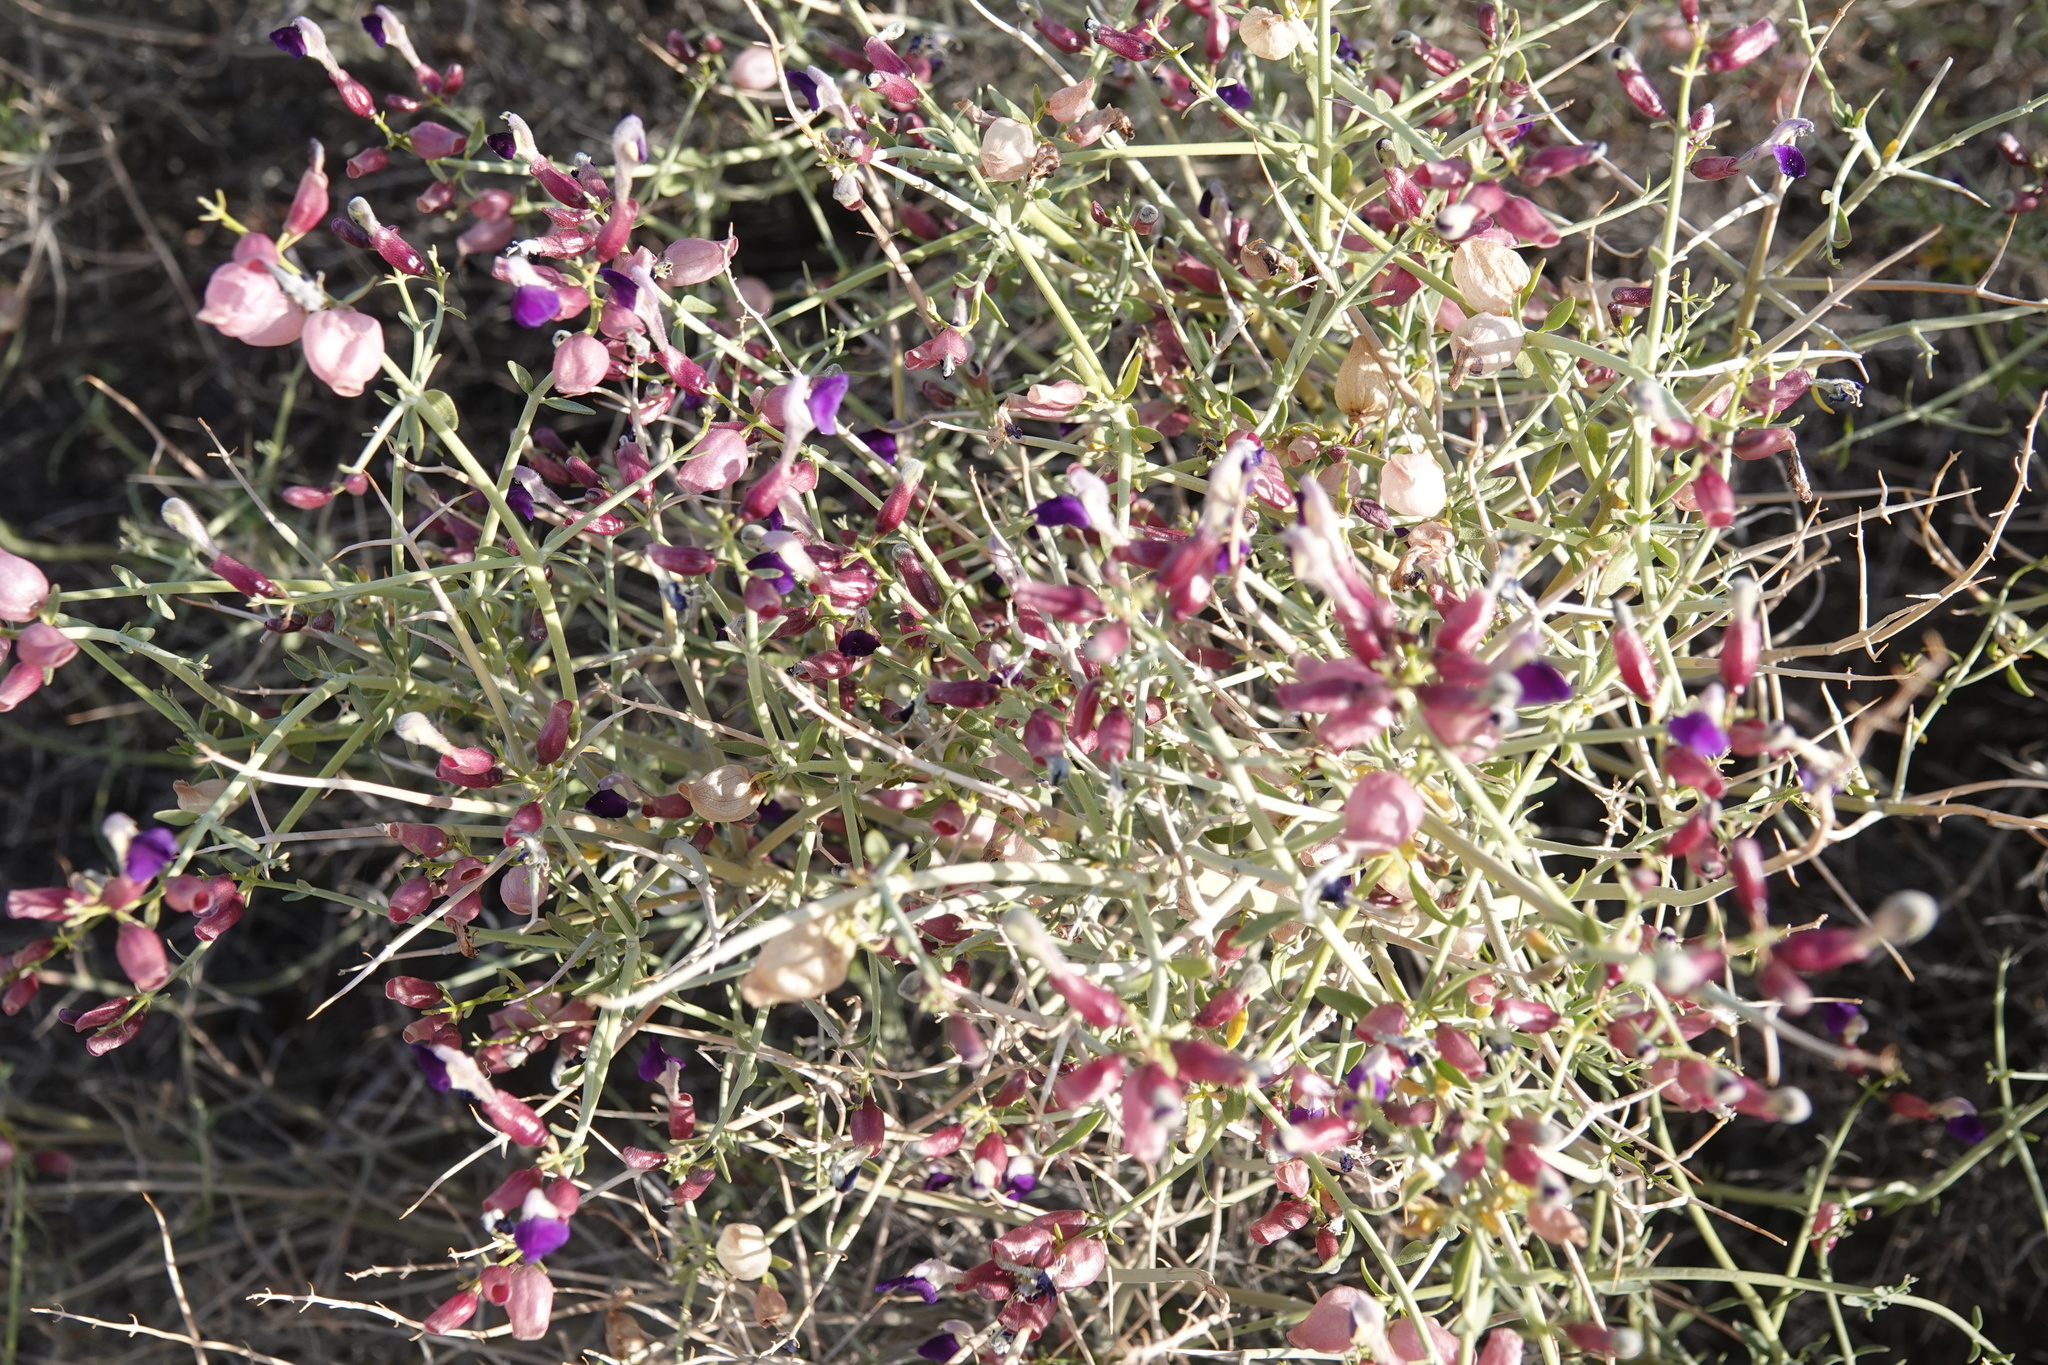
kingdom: Plantae
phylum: Tracheophyta
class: Magnoliopsida
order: Lamiales
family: Lamiaceae
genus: Scutellaria
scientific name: Scutellaria mexicana
